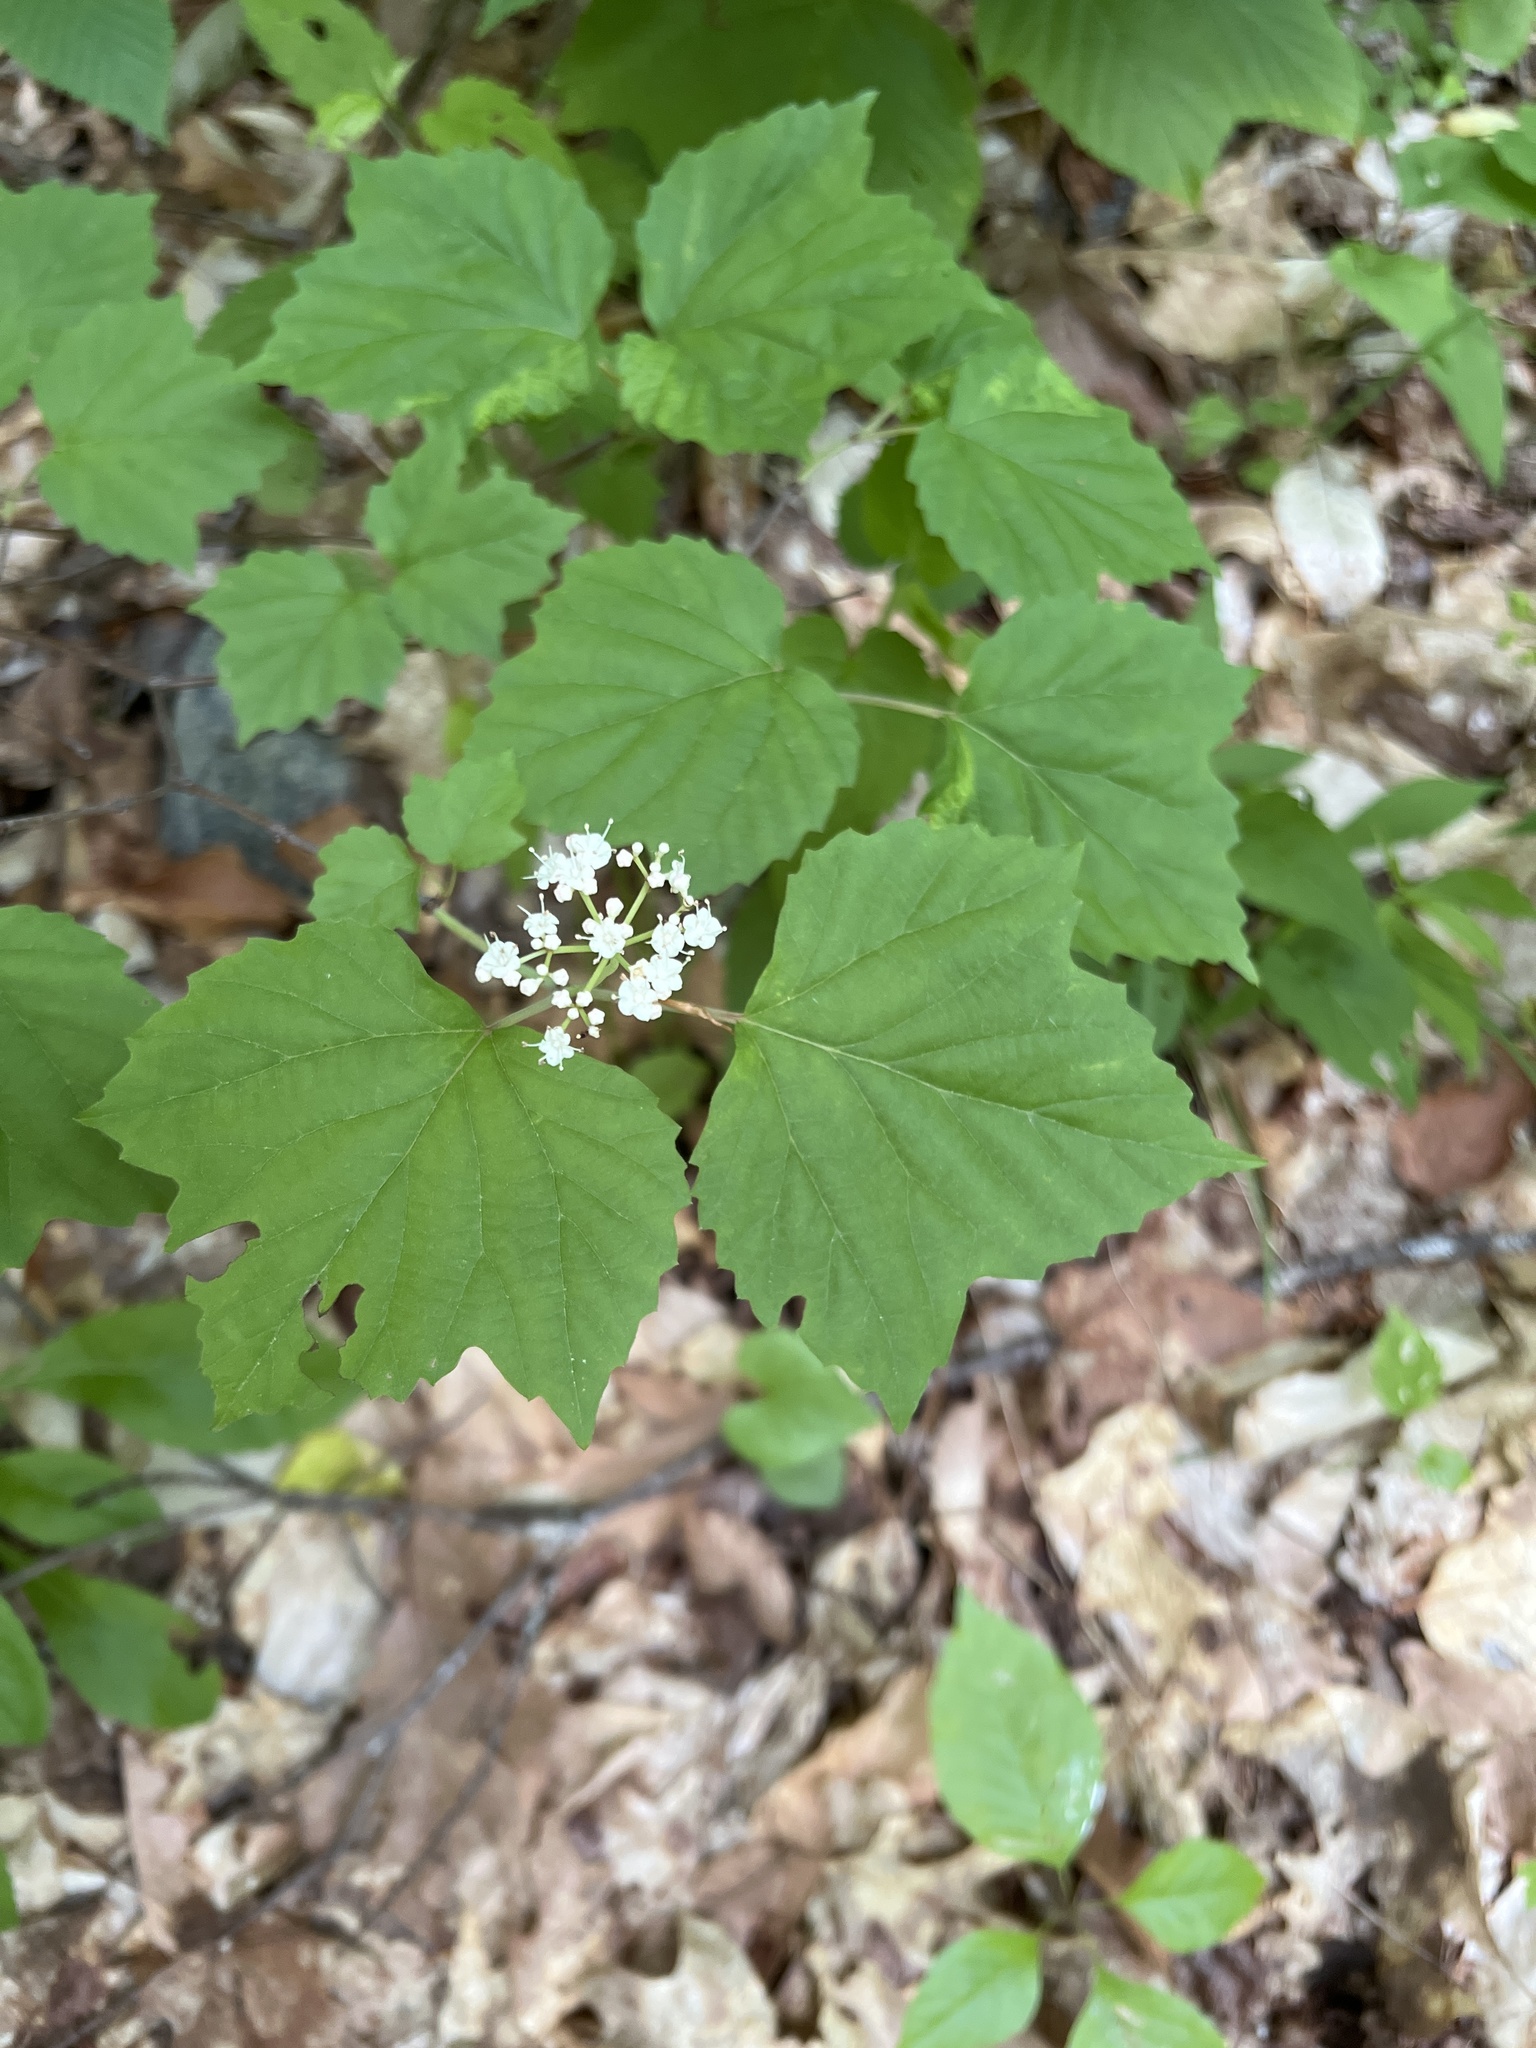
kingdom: Plantae
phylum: Tracheophyta
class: Magnoliopsida
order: Dipsacales
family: Viburnaceae
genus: Viburnum
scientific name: Viburnum acerifolium
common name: Dockmackie
